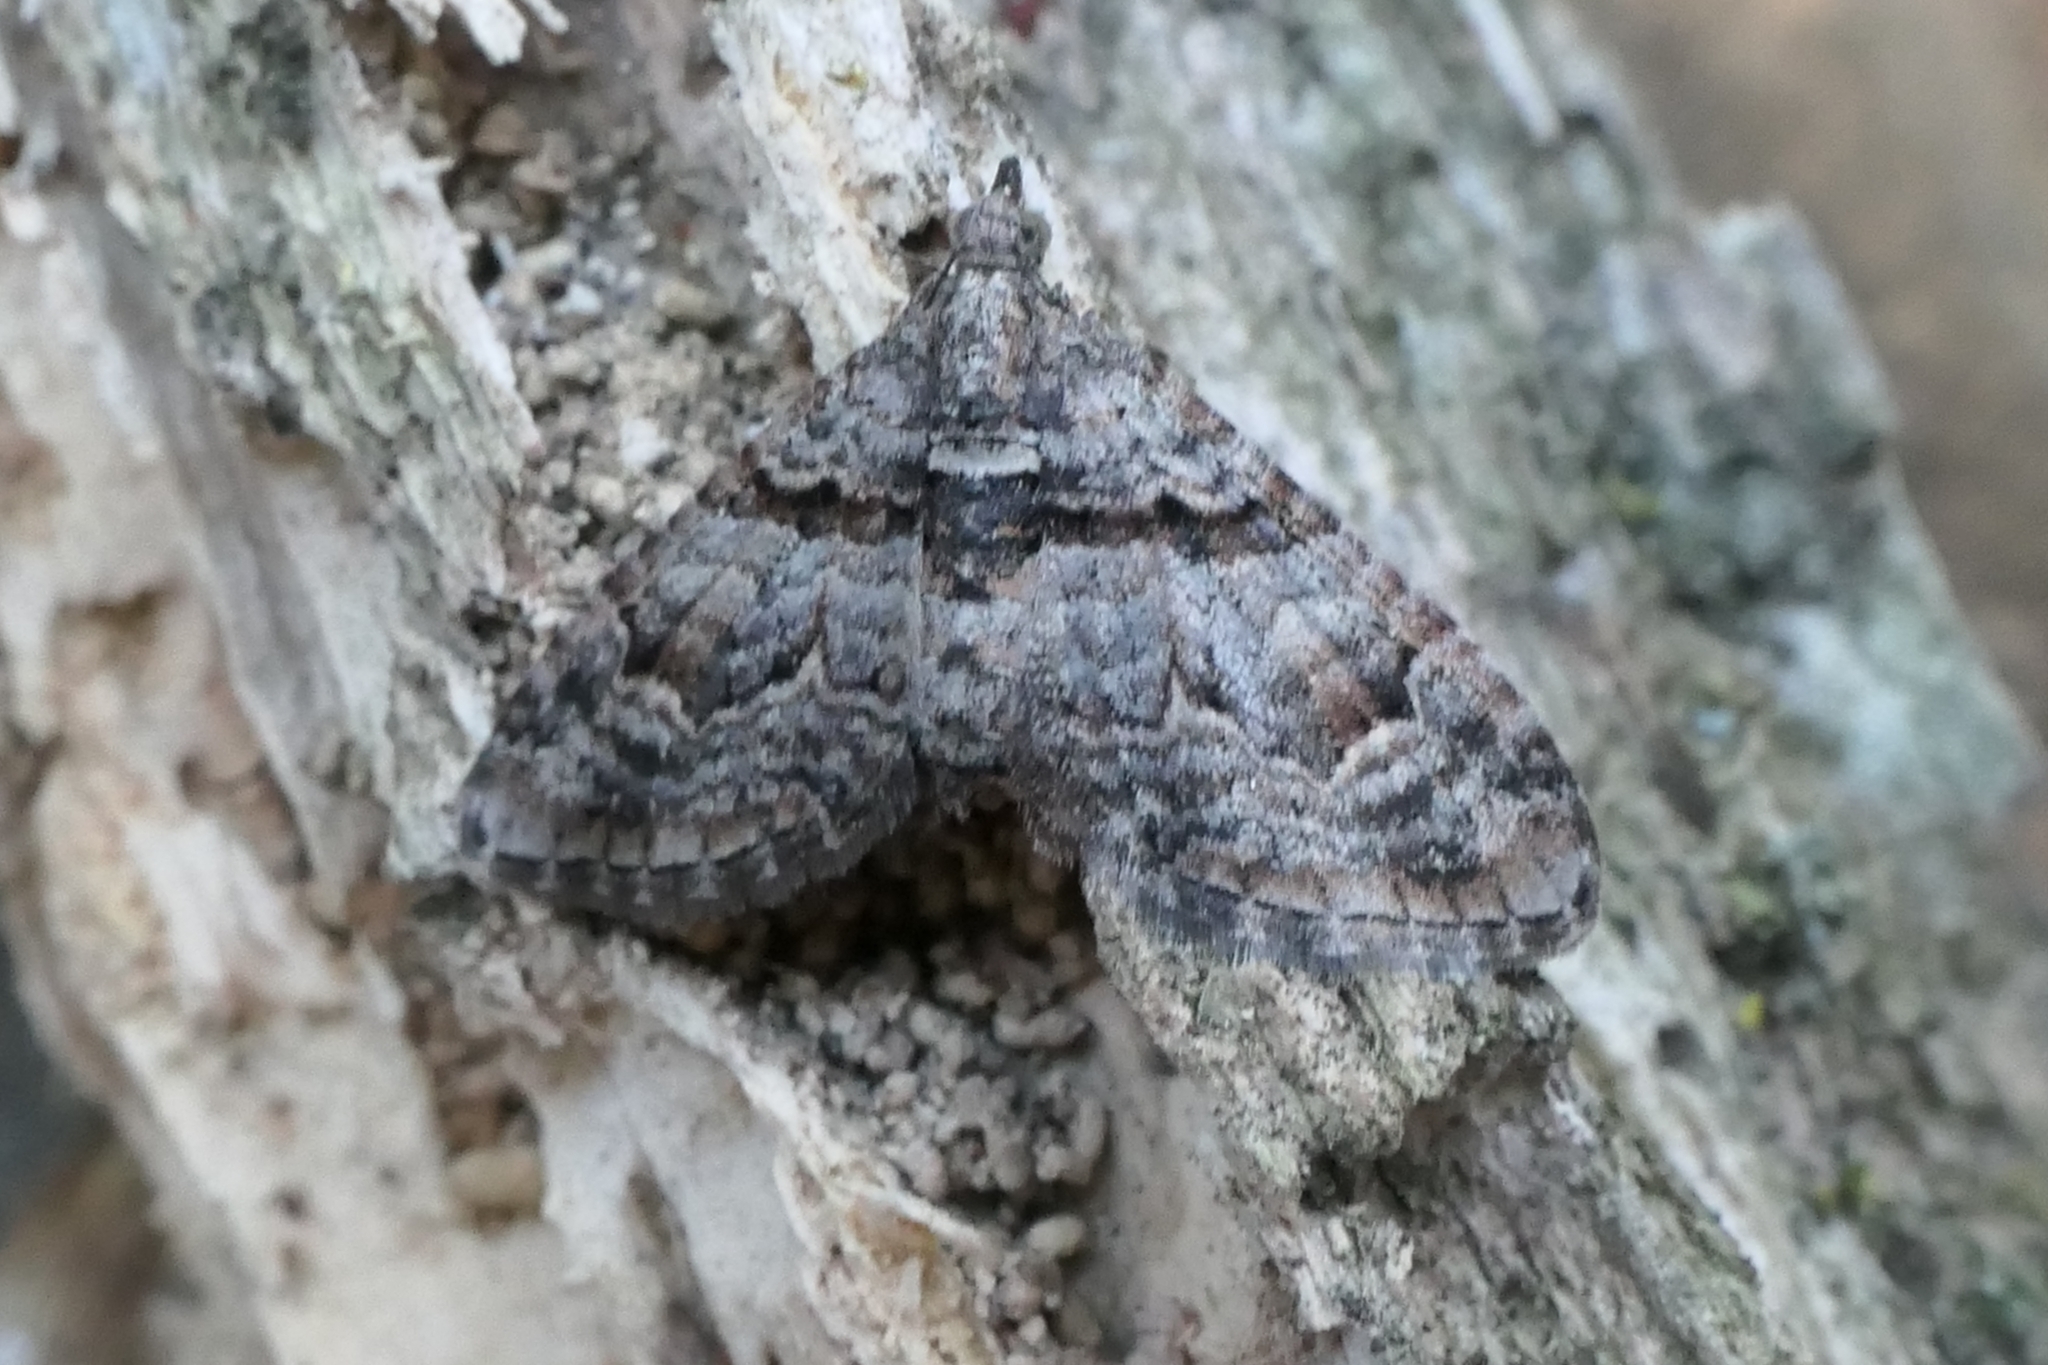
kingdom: Animalia
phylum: Arthropoda
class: Insecta
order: Lepidoptera
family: Geometridae
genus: Phrissogonus
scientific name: Phrissogonus laticostata
